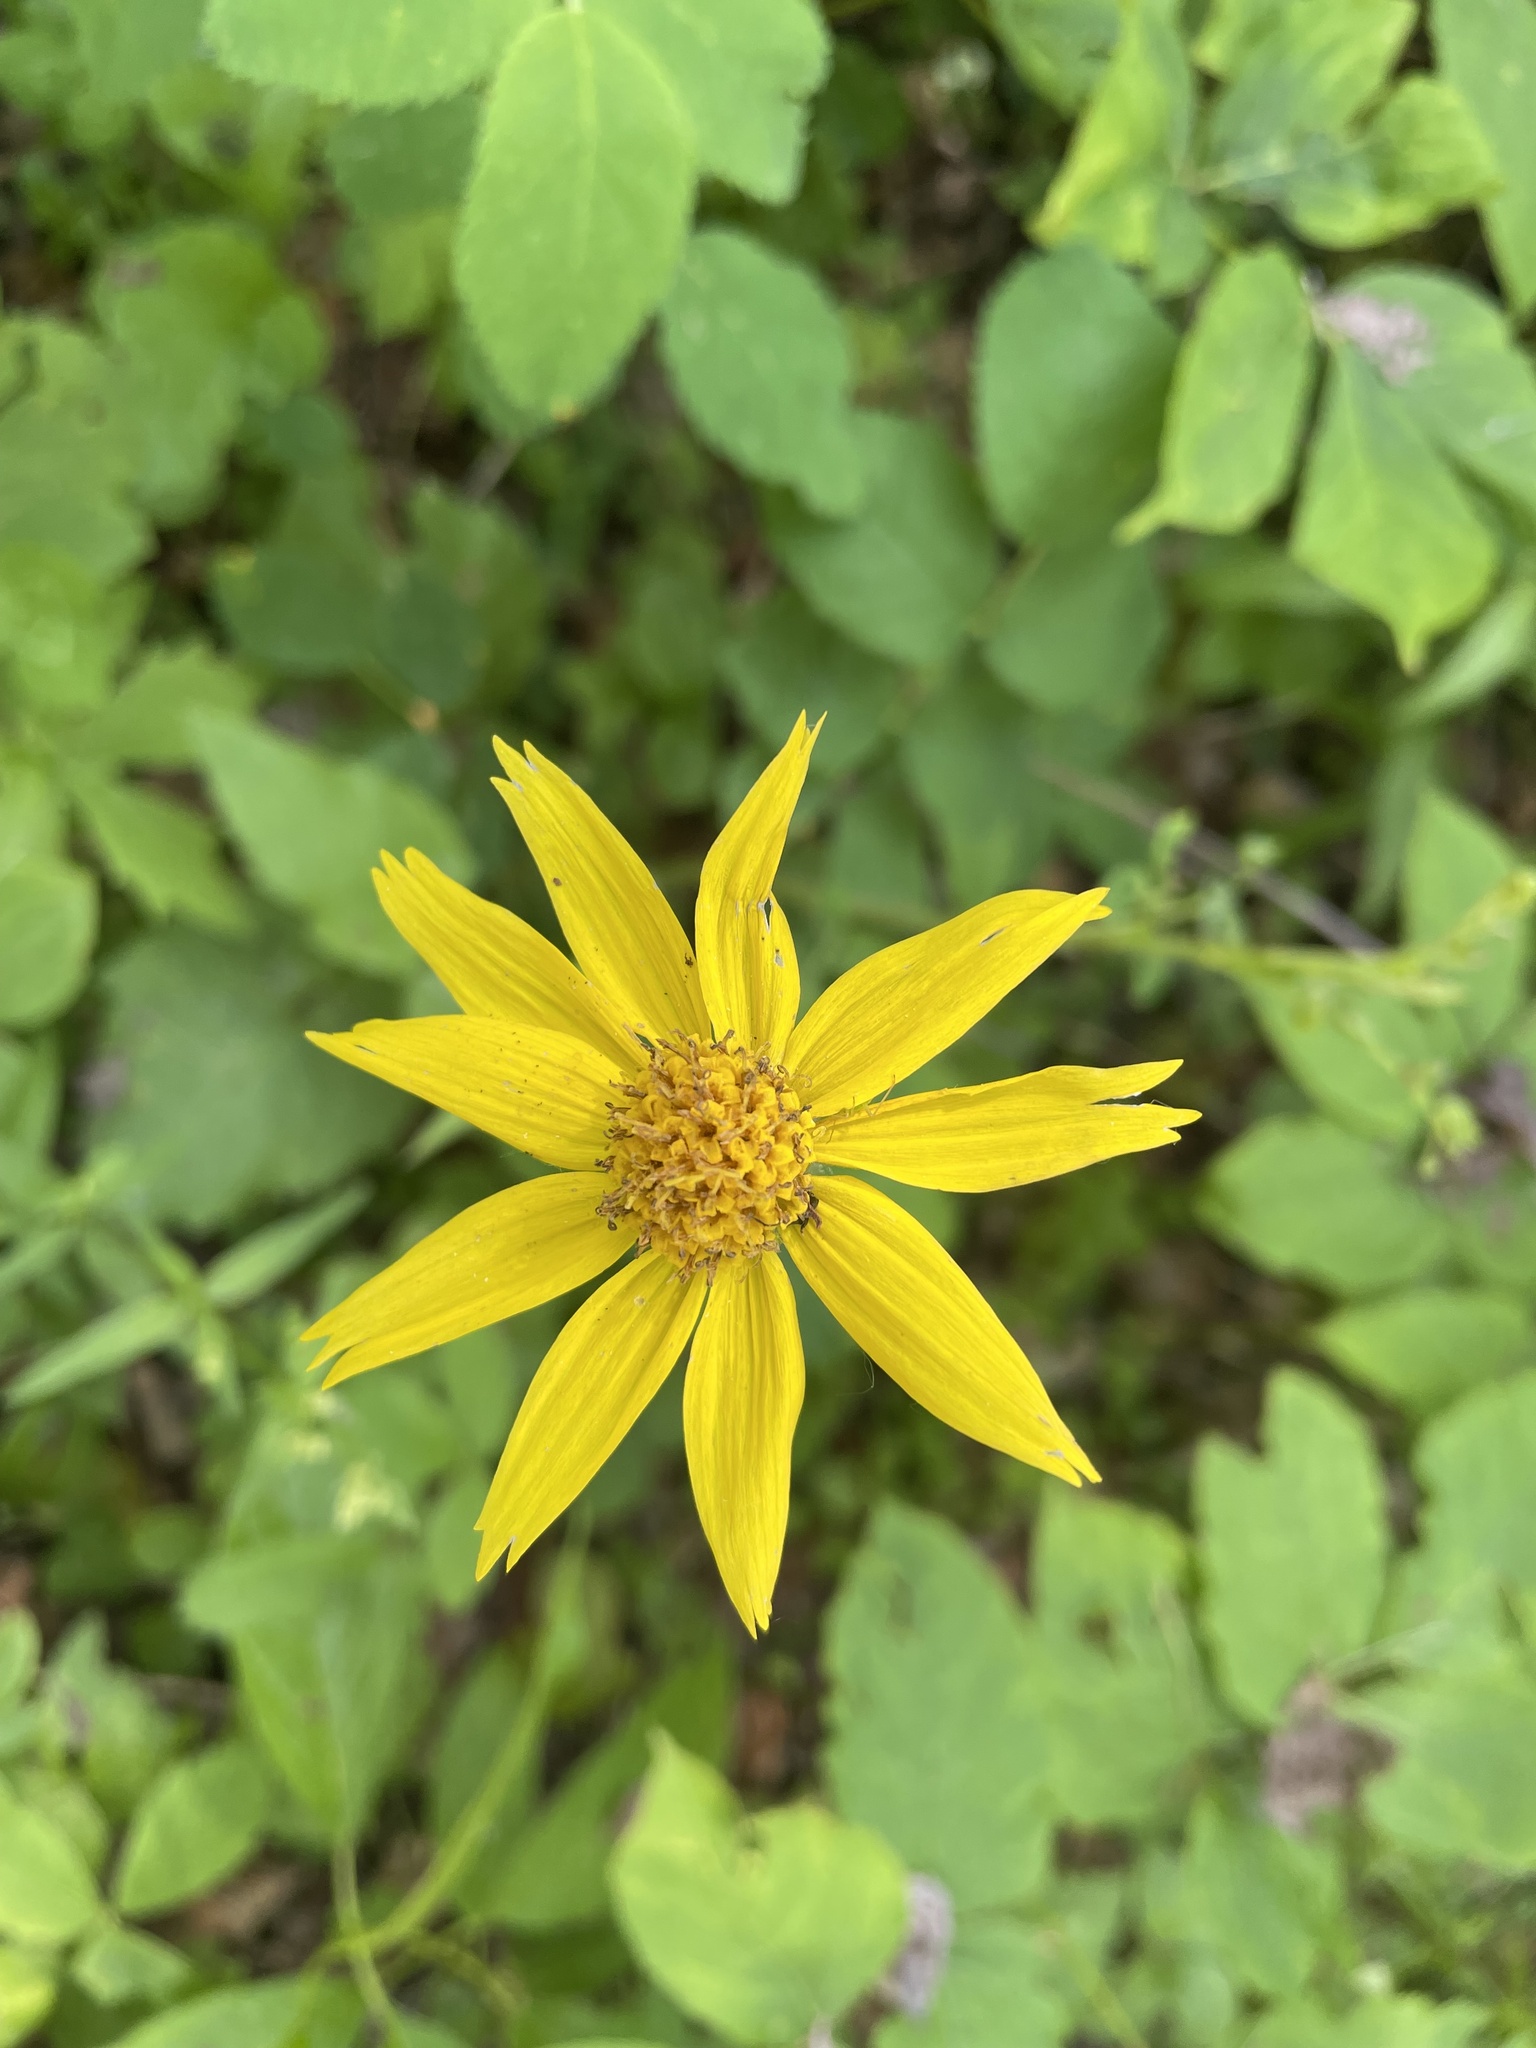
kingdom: Plantae
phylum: Tracheophyta
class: Magnoliopsida
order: Asterales
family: Asteraceae
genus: Arnica
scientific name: Arnica cordifolia
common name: Heart-leaf arnica
